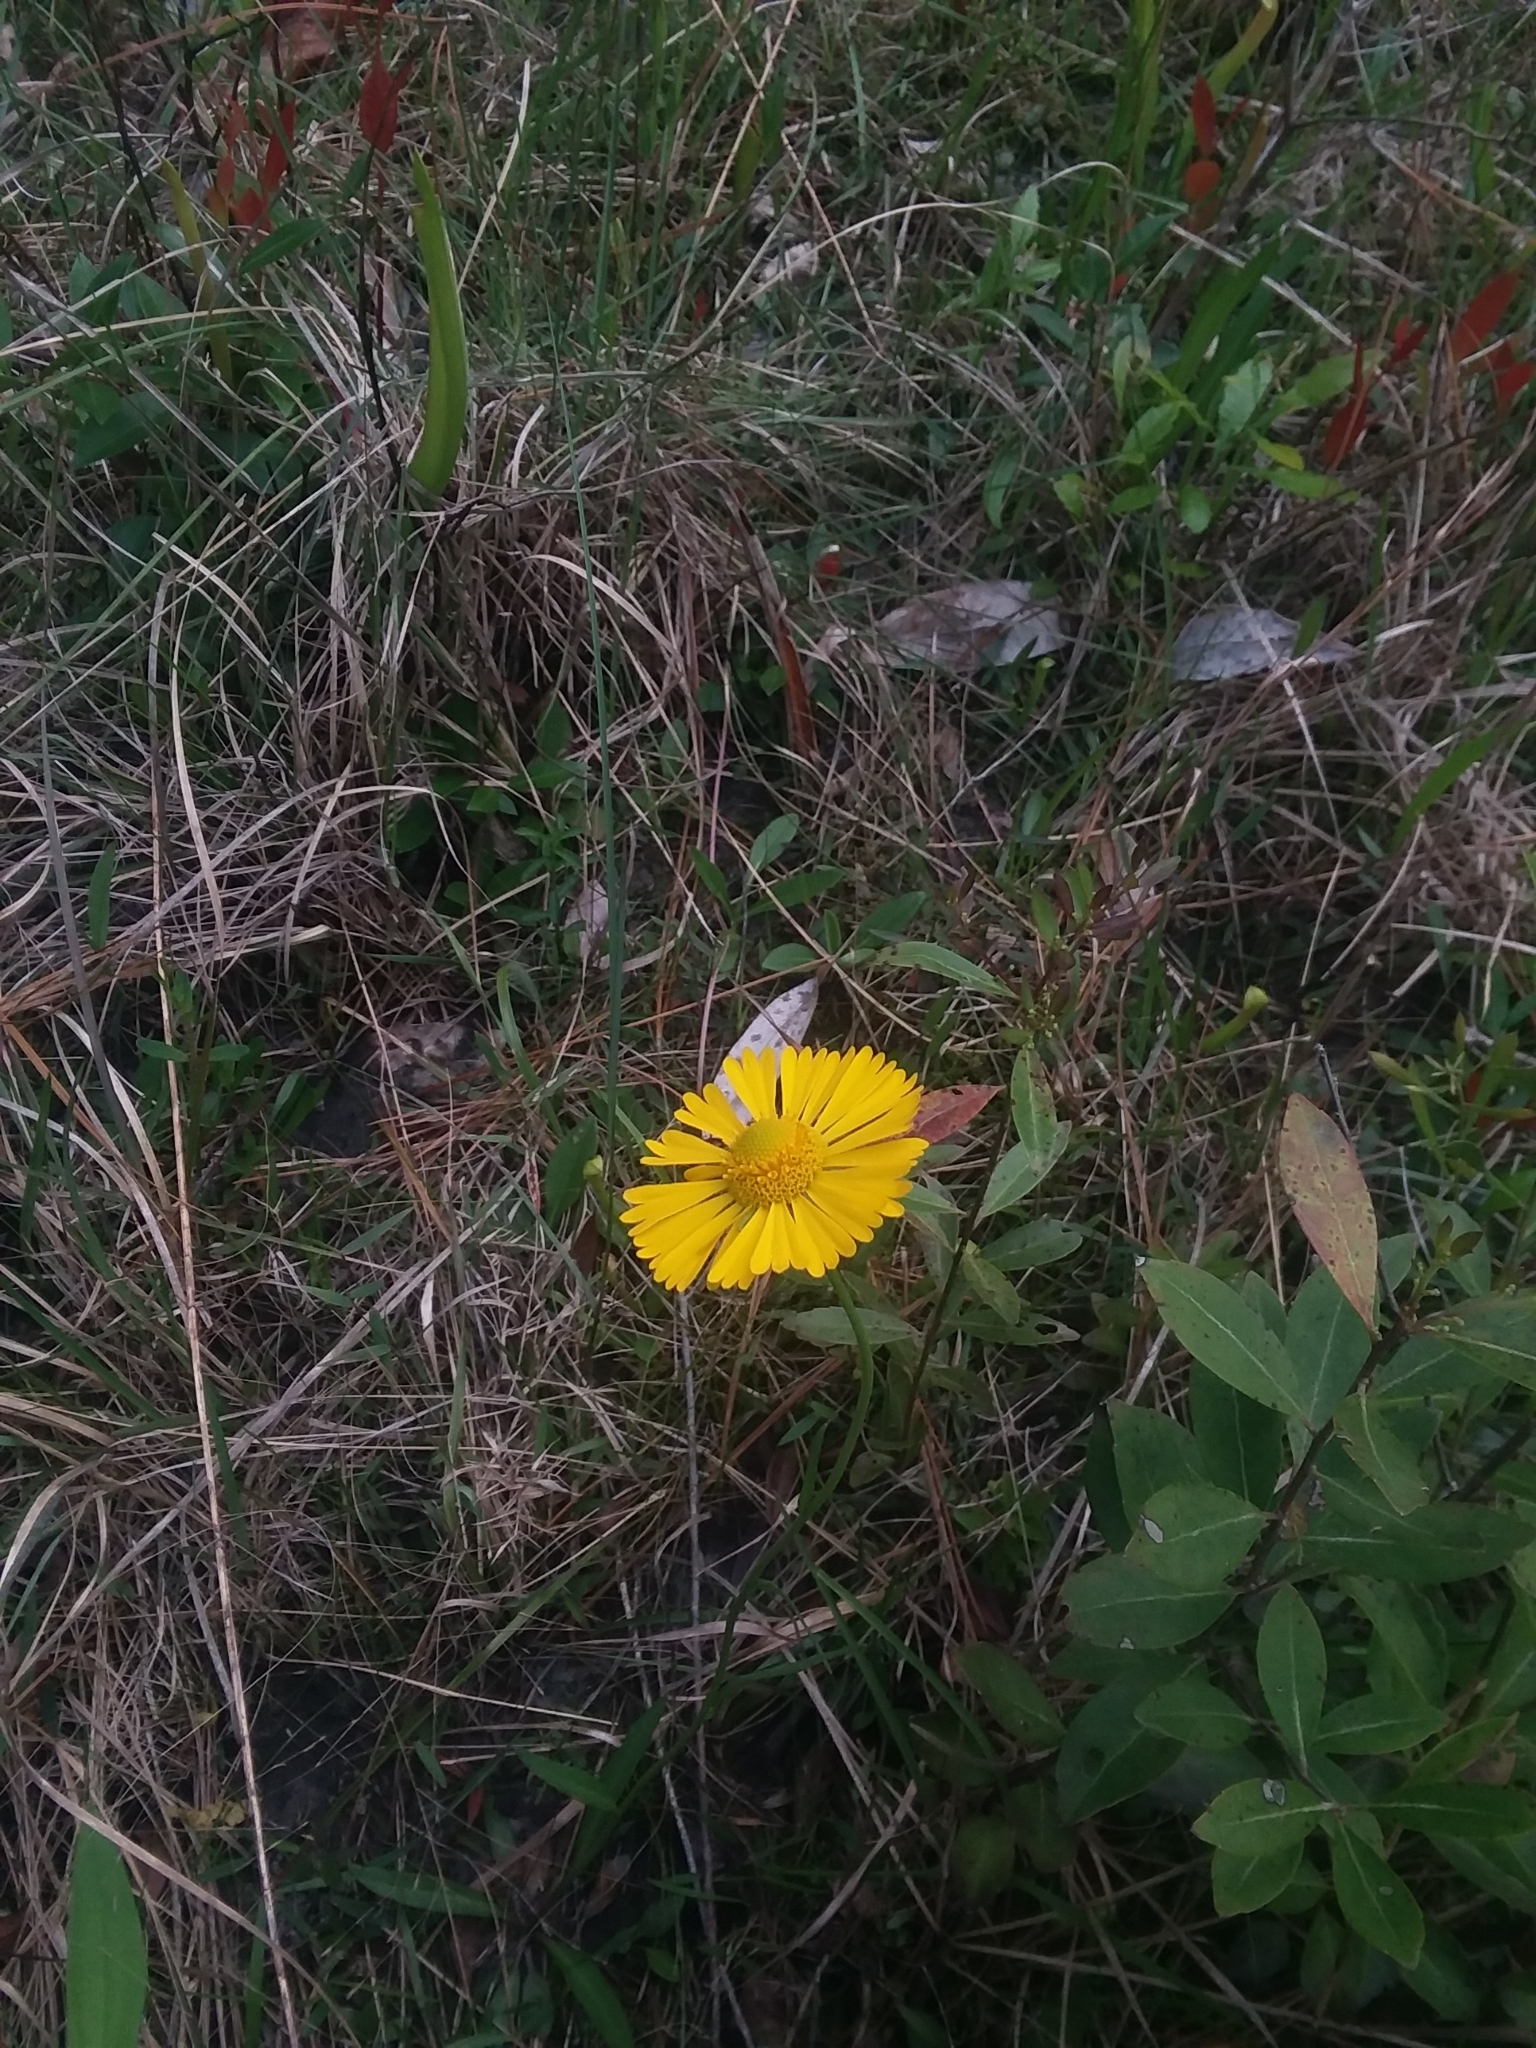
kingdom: Plantae
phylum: Tracheophyta
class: Magnoliopsida
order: Asterales
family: Asteraceae
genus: Helenium
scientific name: Helenium vernale
